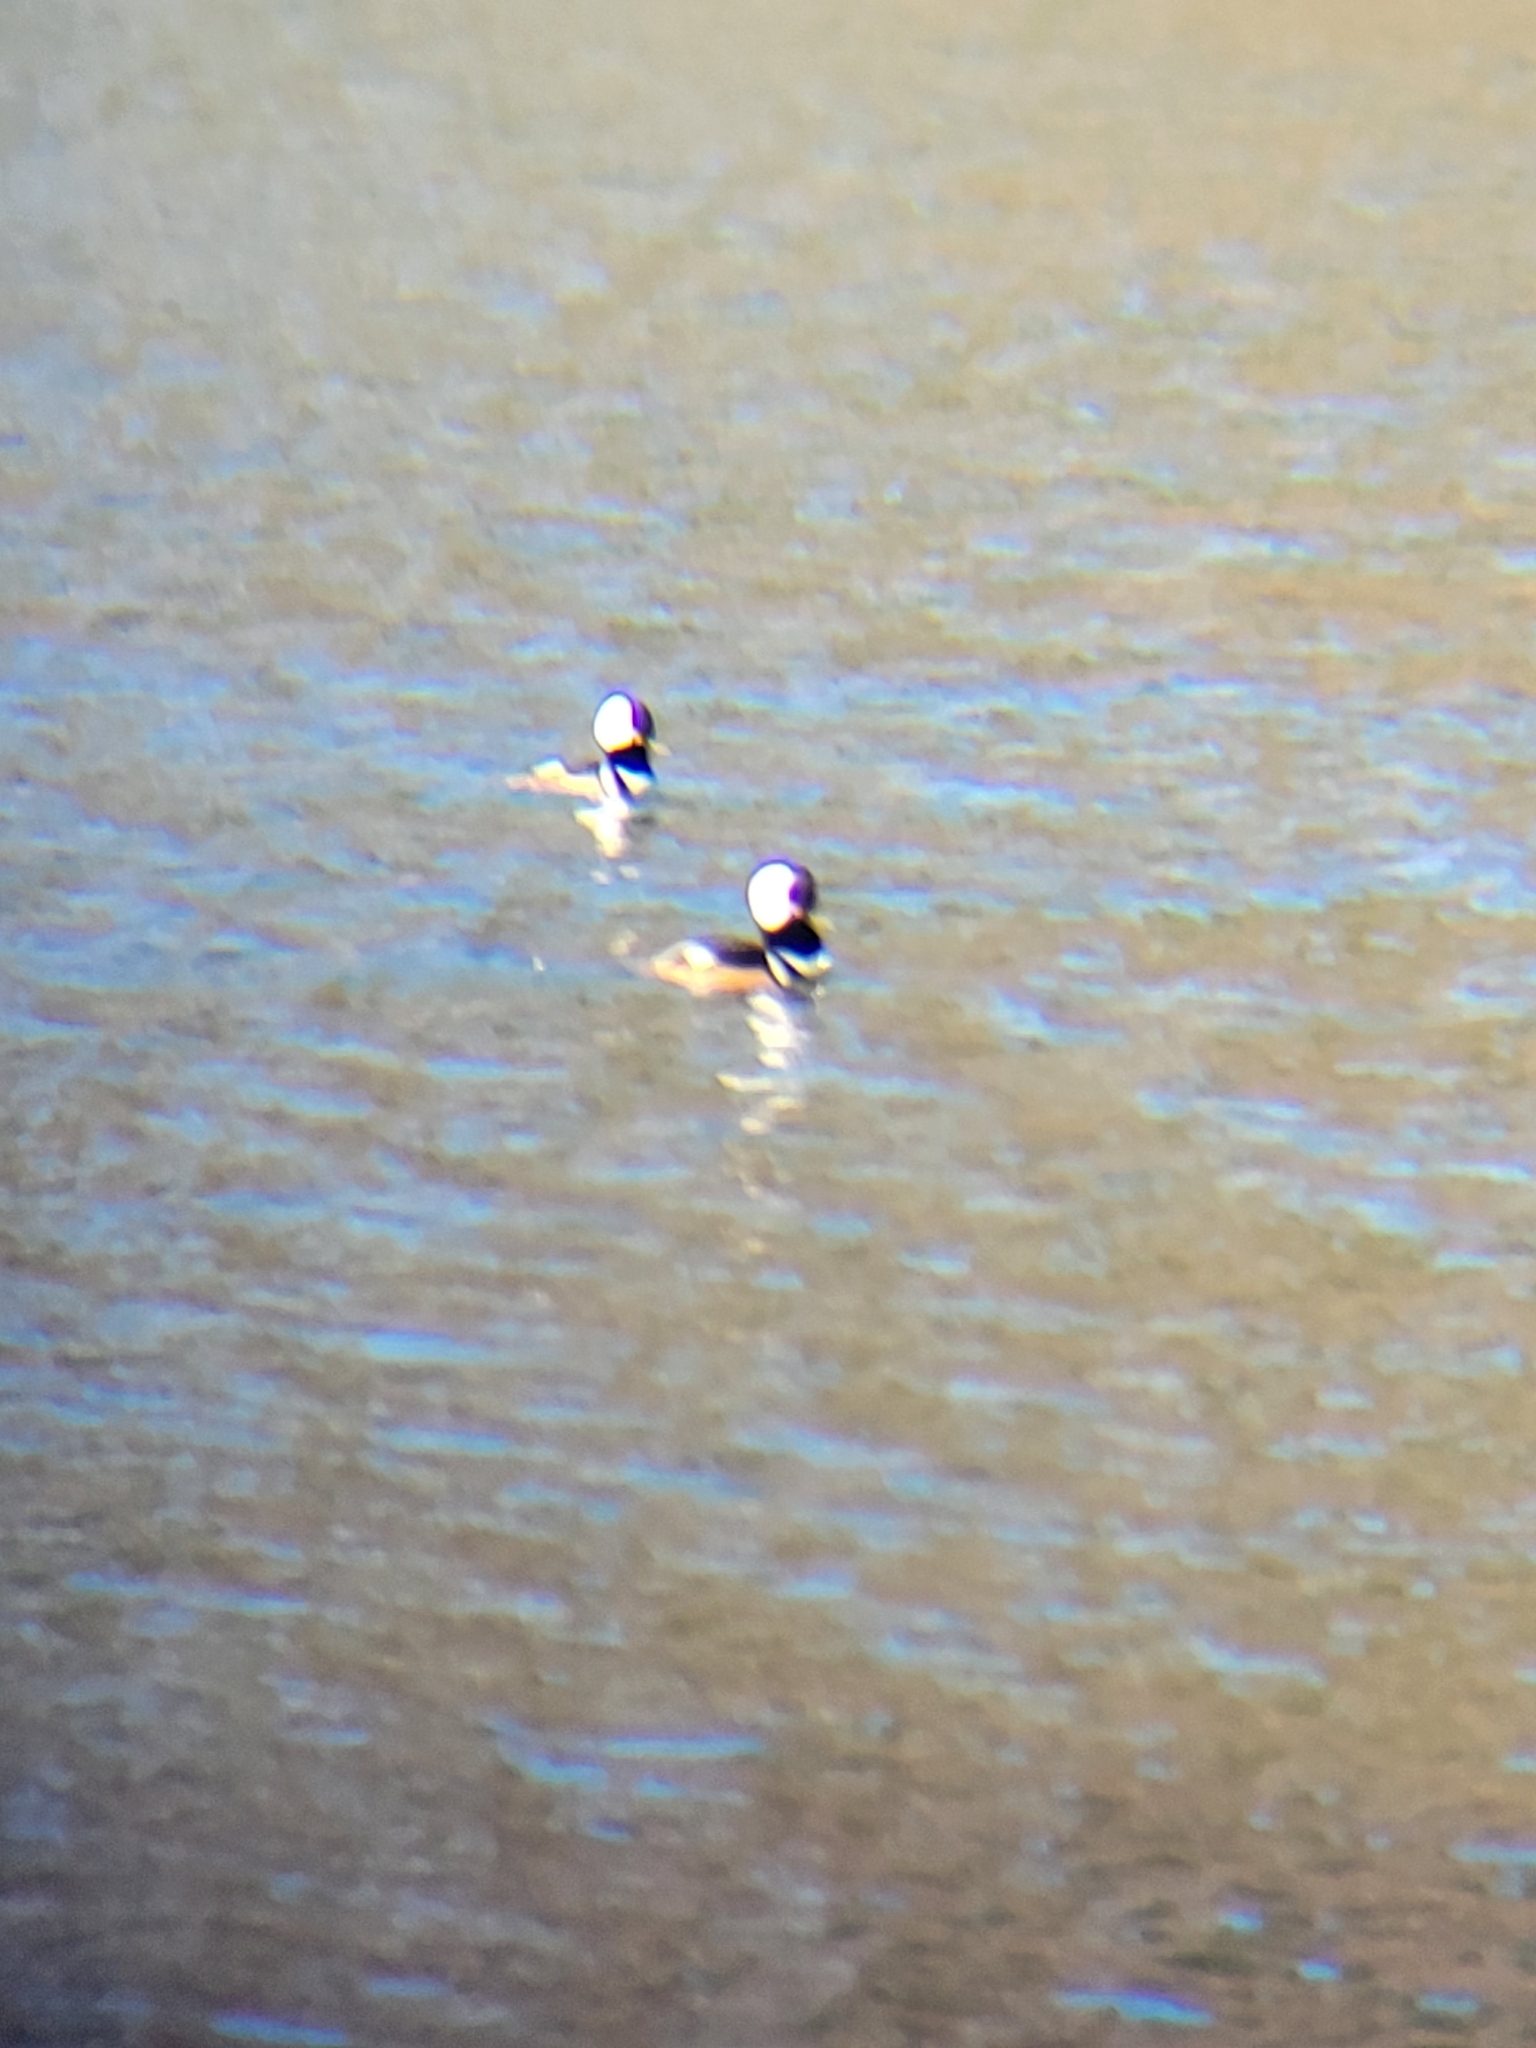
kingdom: Animalia
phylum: Chordata
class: Aves
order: Anseriformes
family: Anatidae
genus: Lophodytes
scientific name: Lophodytes cucullatus
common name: Hooded merganser
